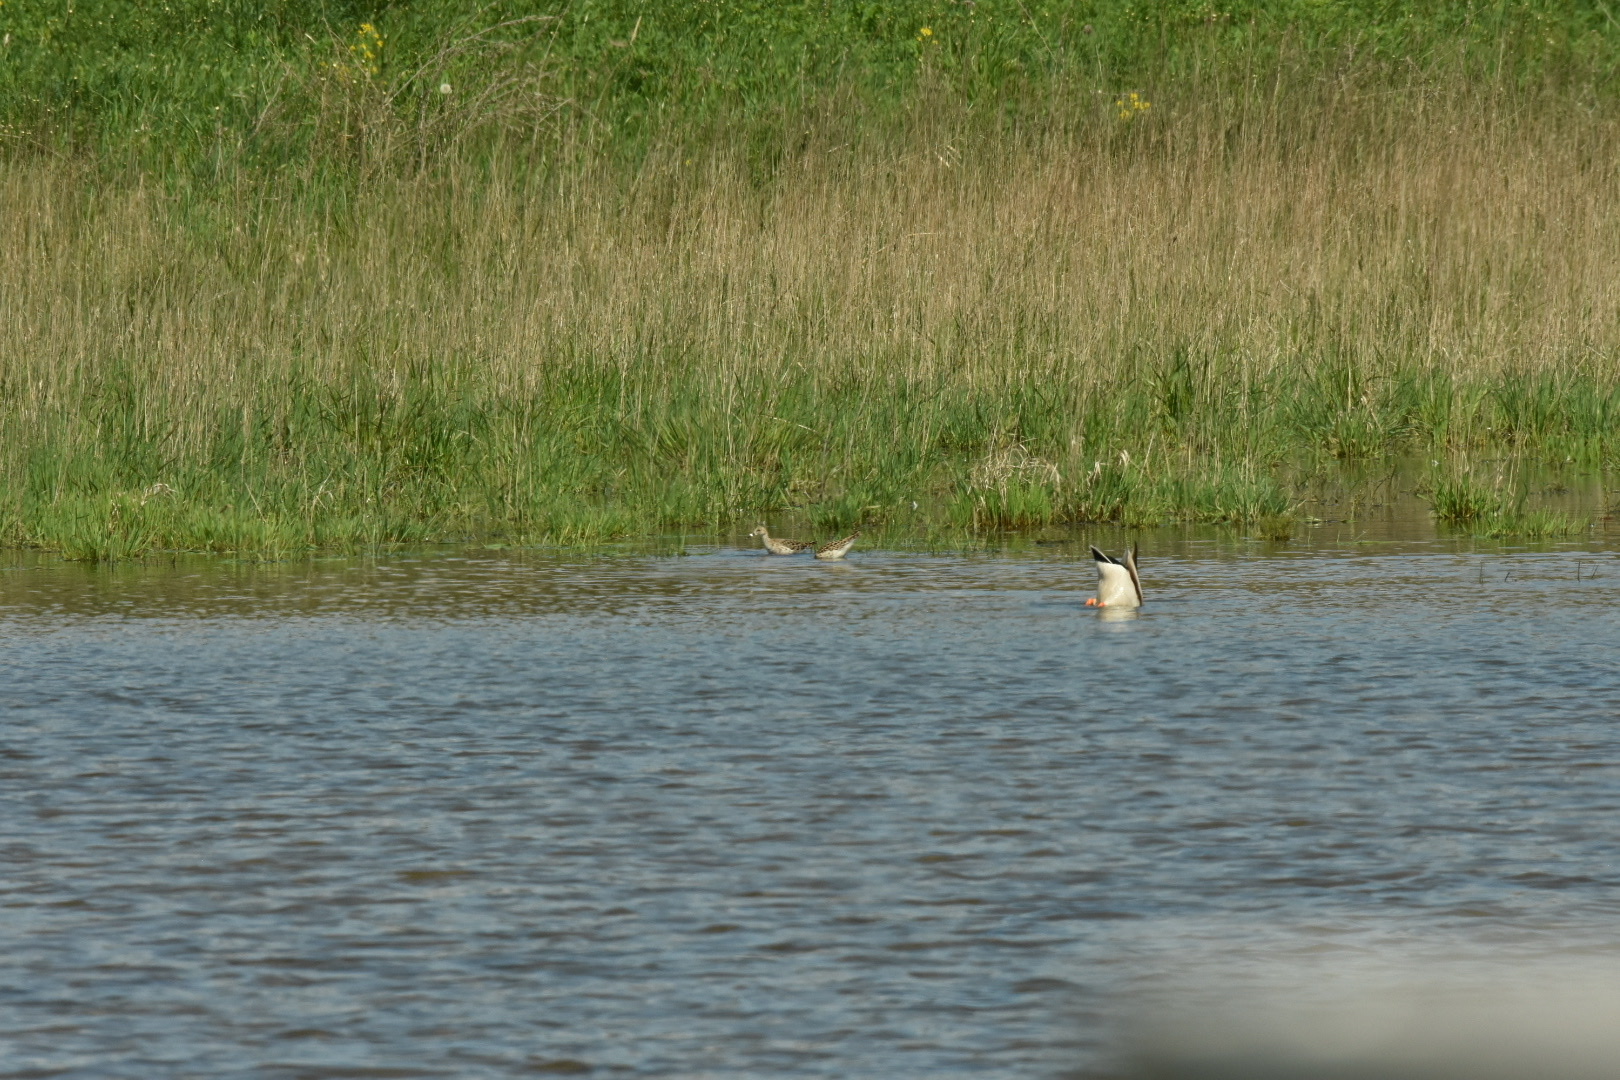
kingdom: Animalia
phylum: Chordata
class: Aves
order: Charadriiformes
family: Scolopacidae
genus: Calidris
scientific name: Calidris pugnax
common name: Ruff
